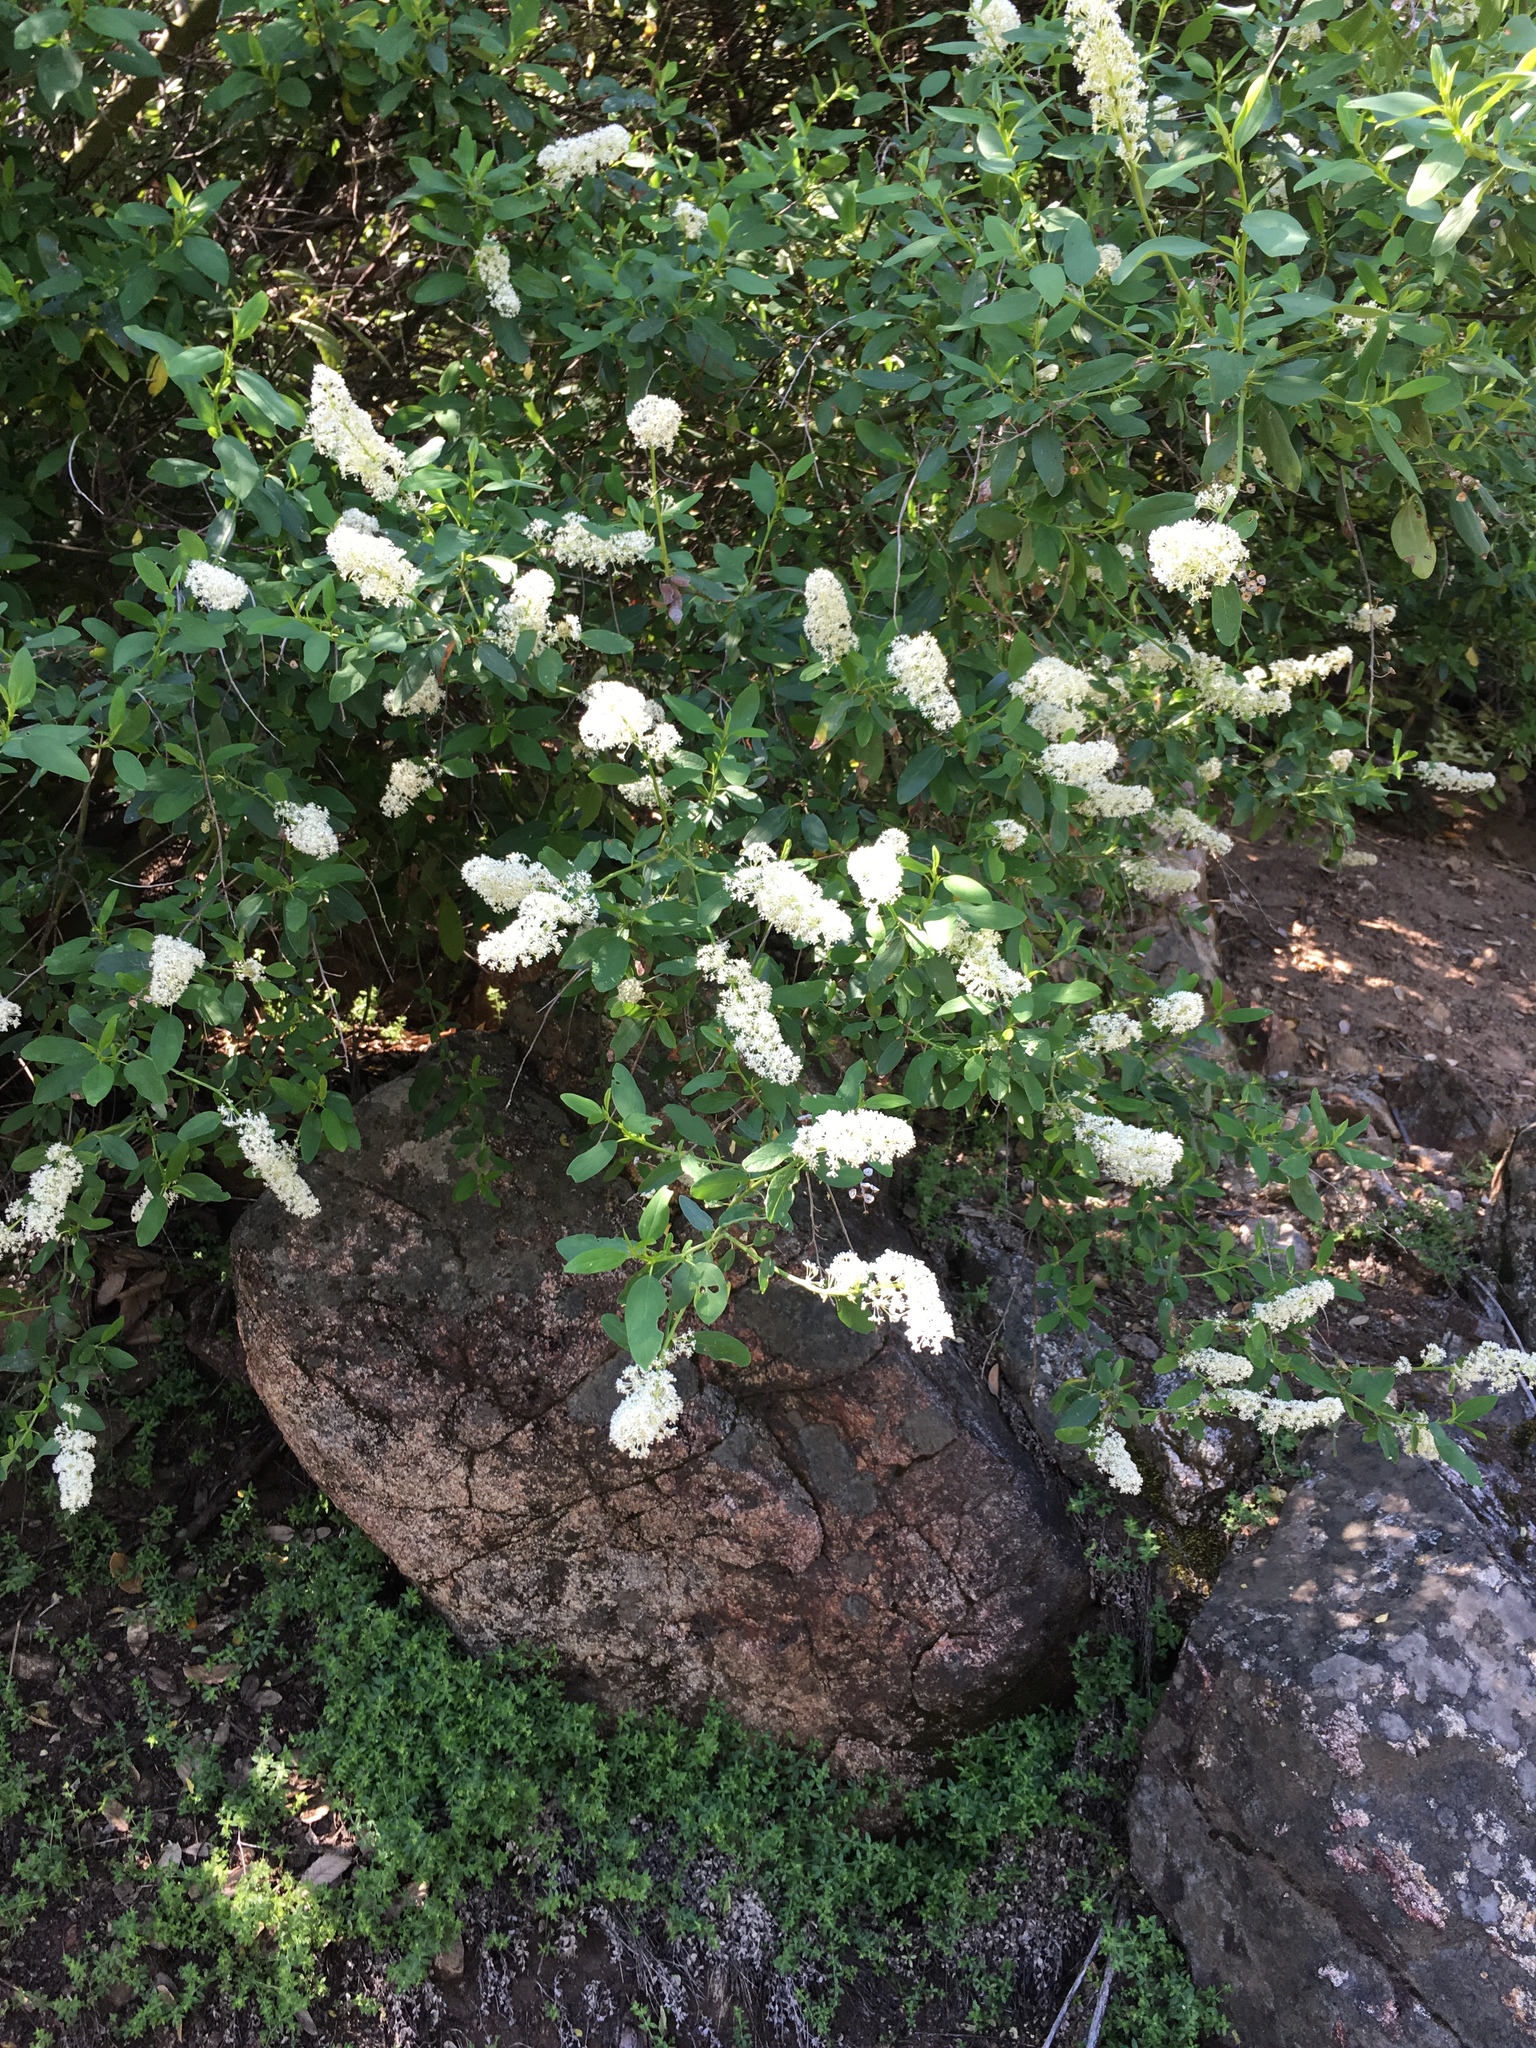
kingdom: Plantae
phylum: Tracheophyta
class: Magnoliopsida
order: Rosales
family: Rhamnaceae
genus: Ceanothus
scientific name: Ceanothus integerrimus
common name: Deerbrush ceanothus
